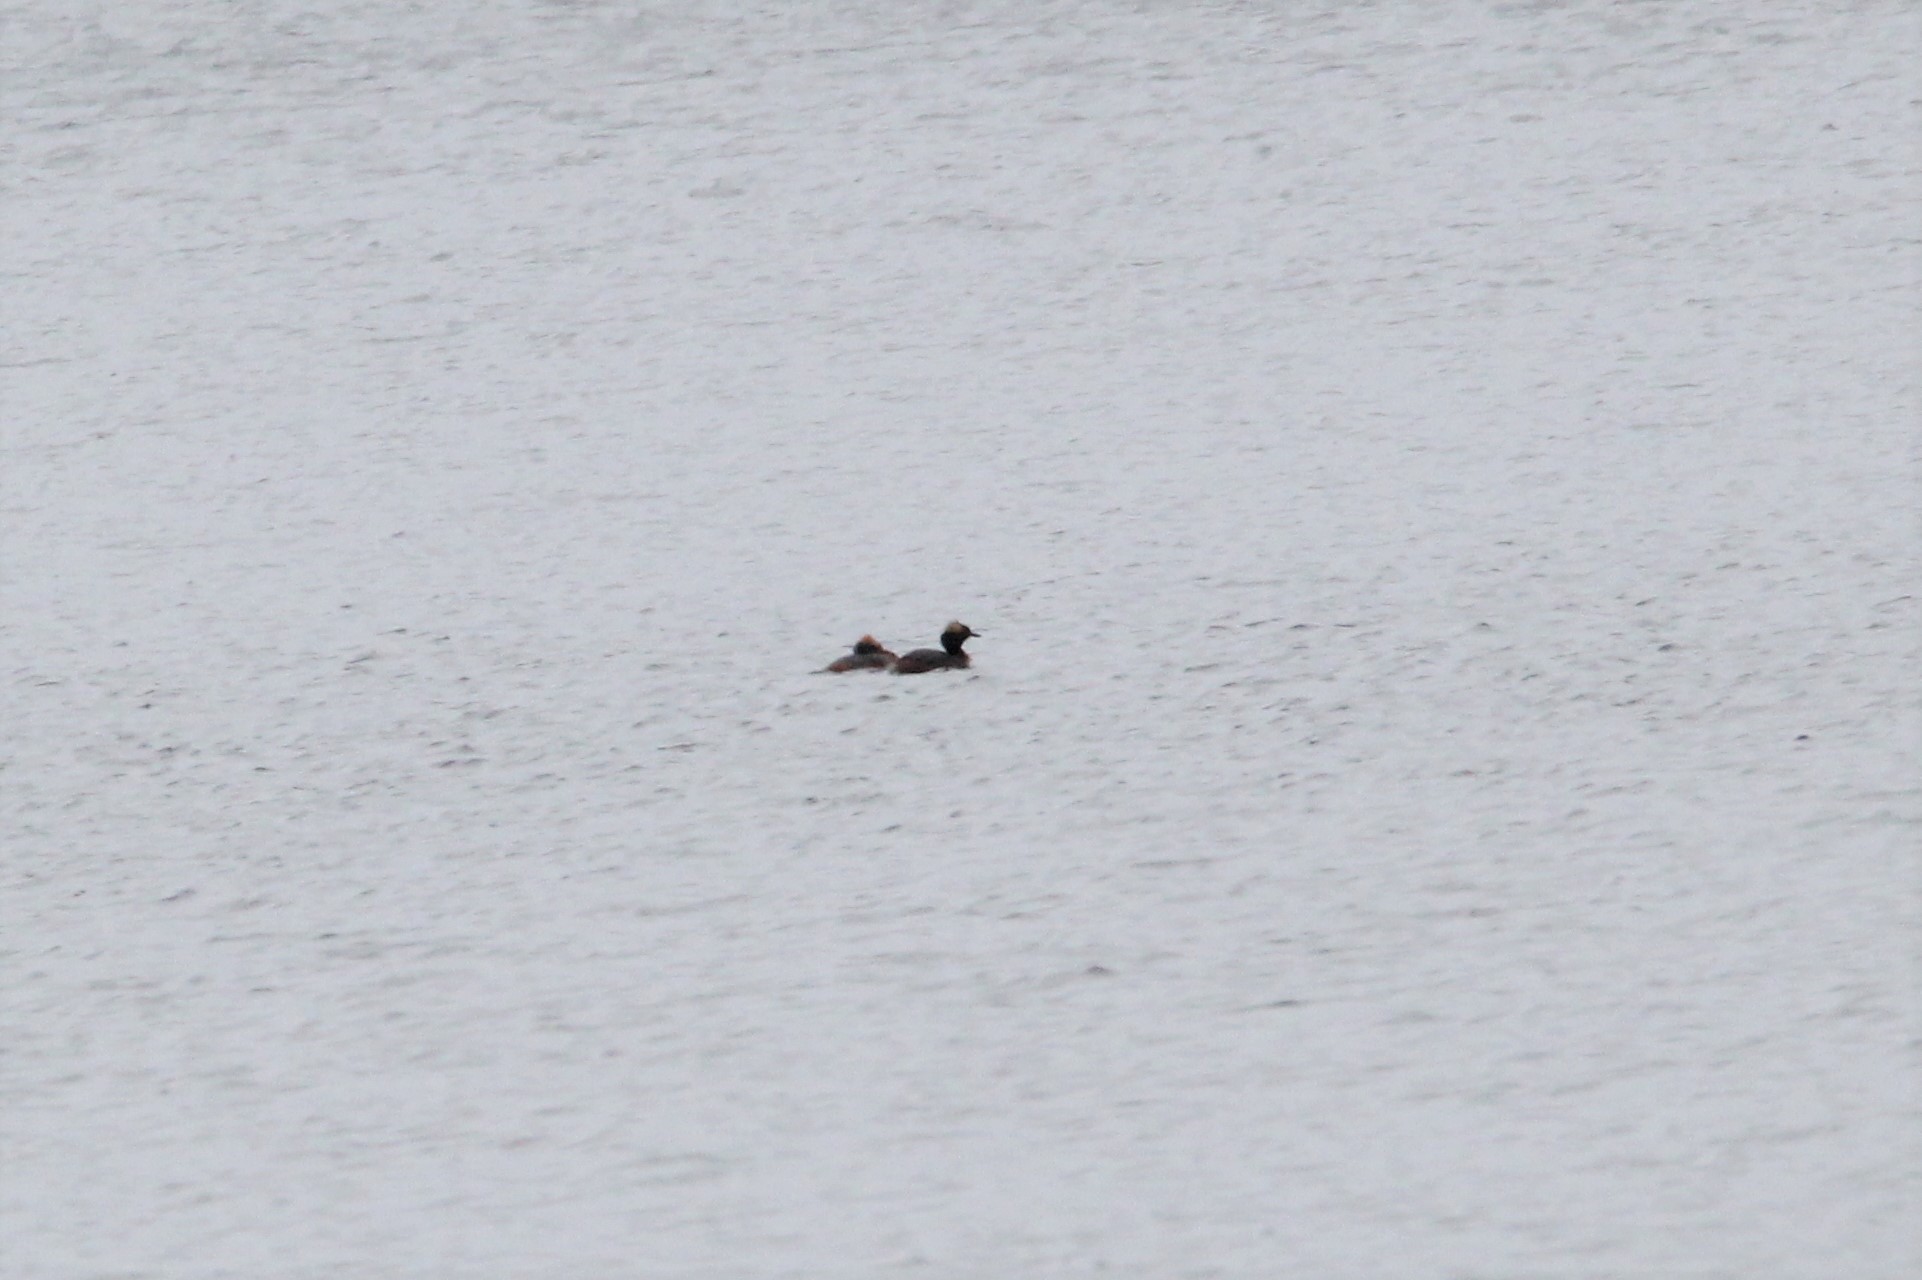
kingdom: Animalia
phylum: Chordata
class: Aves
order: Podicipediformes
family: Podicipedidae
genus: Podiceps
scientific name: Podiceps auritus
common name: Horned grebe
